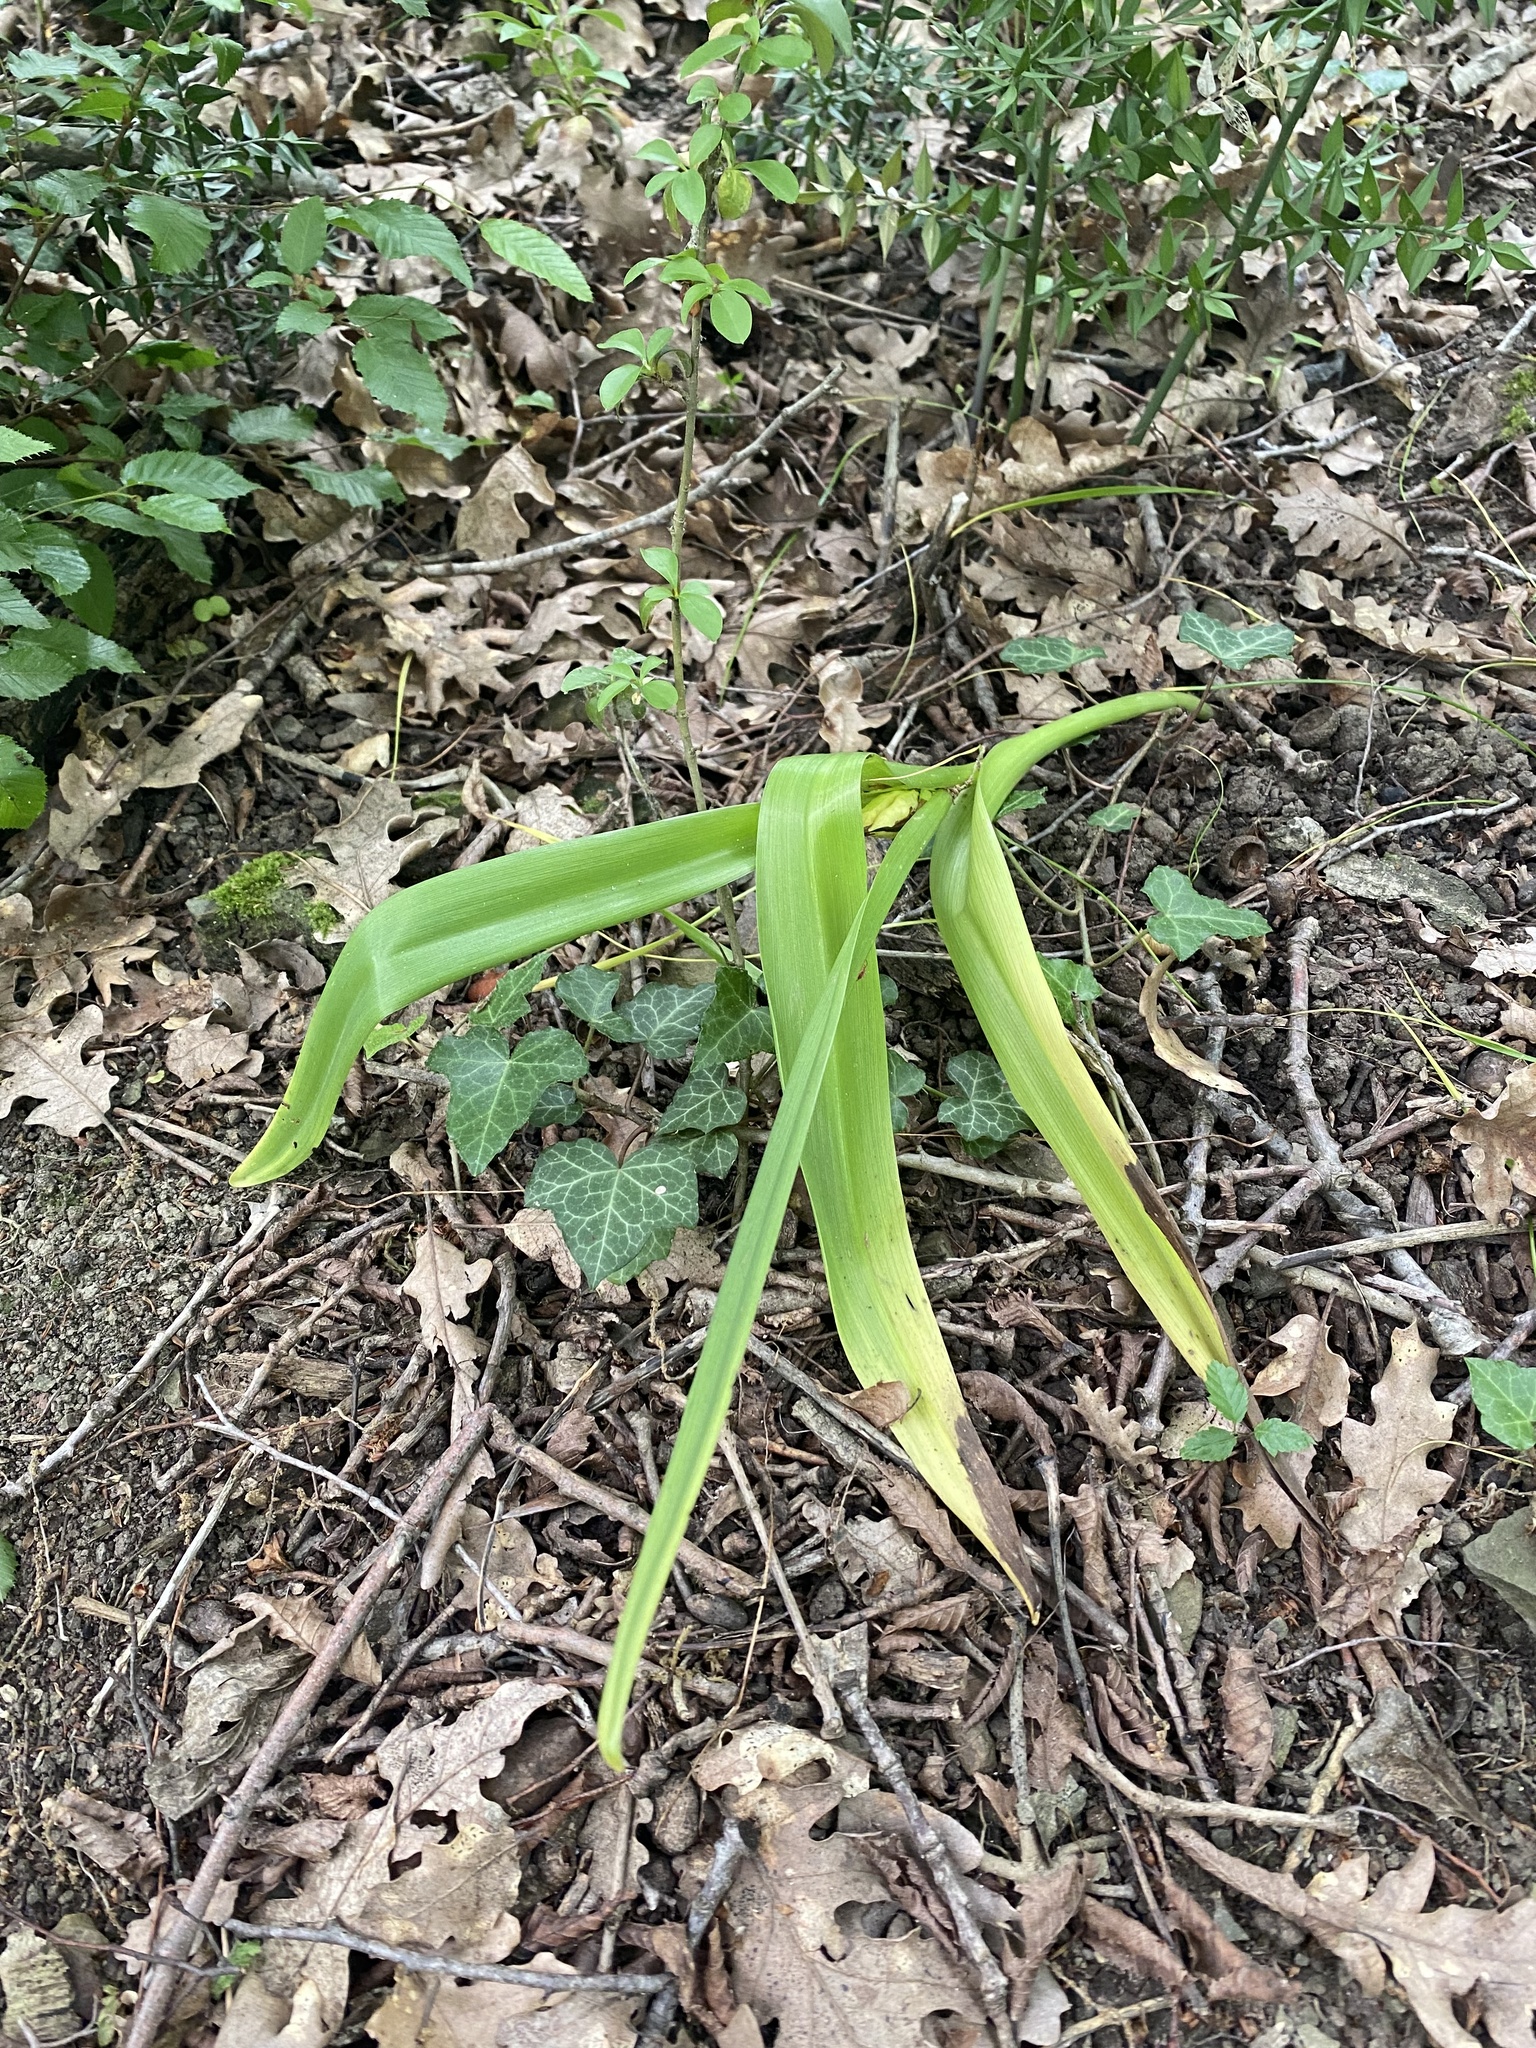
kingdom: Plantae
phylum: Tracheophyta
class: Liliopsida
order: Liliales
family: Colchicaceae
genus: Colchicum
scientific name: Colchicum umbrosum
